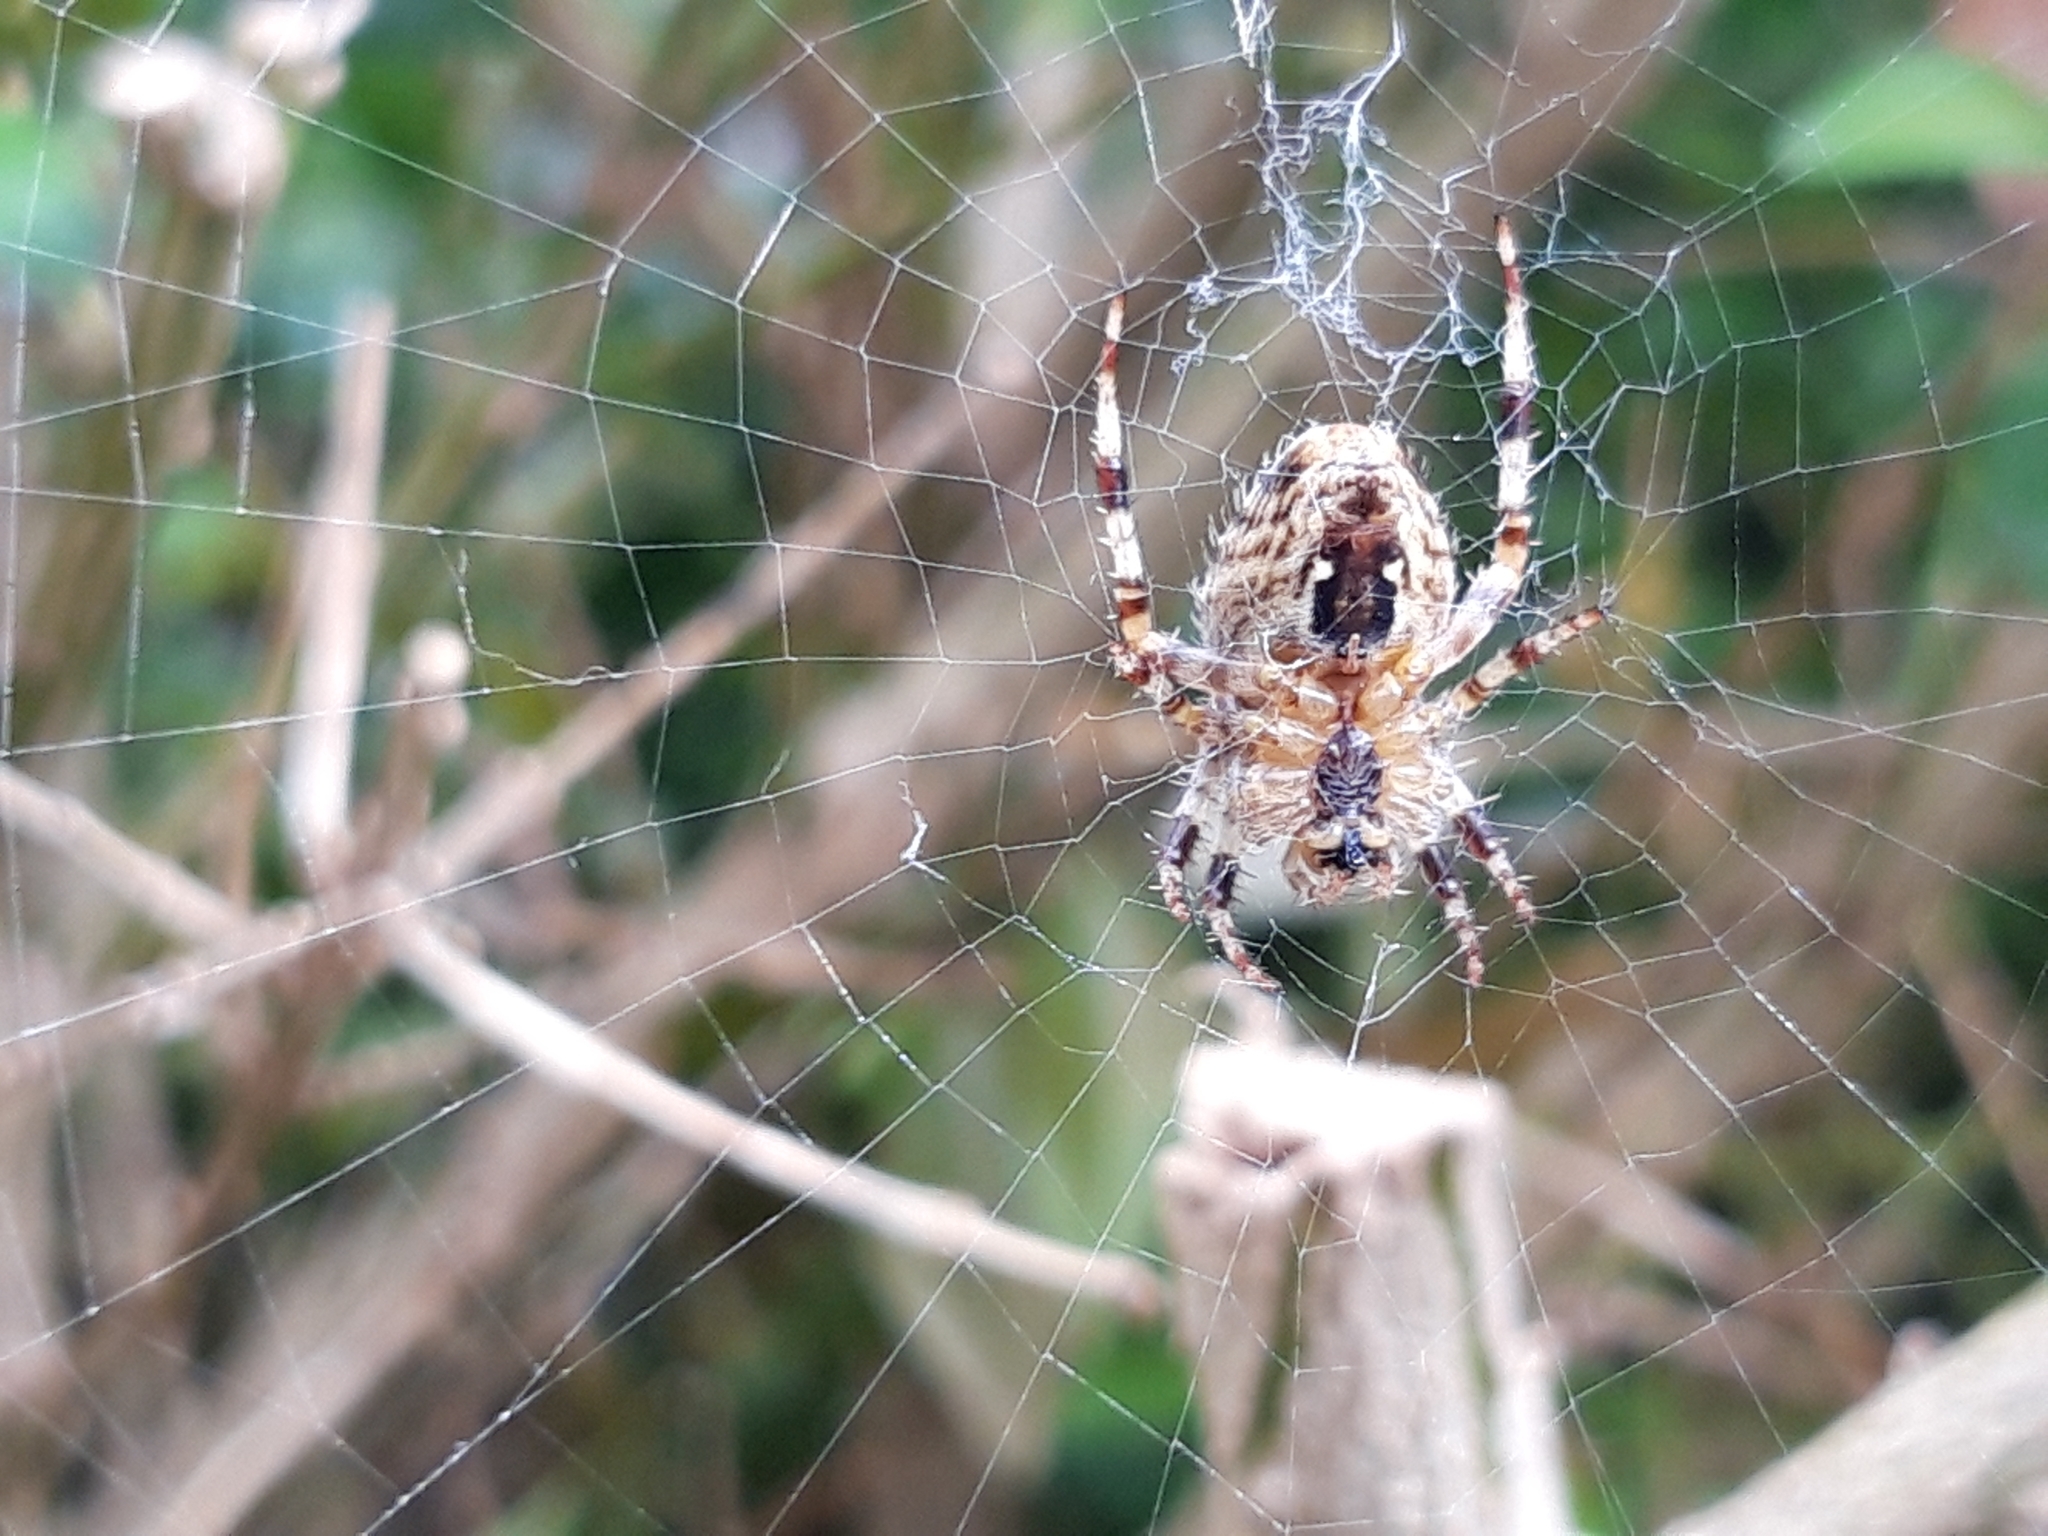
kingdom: Animalia
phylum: Arthropoda
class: Arachnida
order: Araneae
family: Araneidae
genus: Araneus
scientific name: Araneus diadematus
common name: Cross orbweaver
